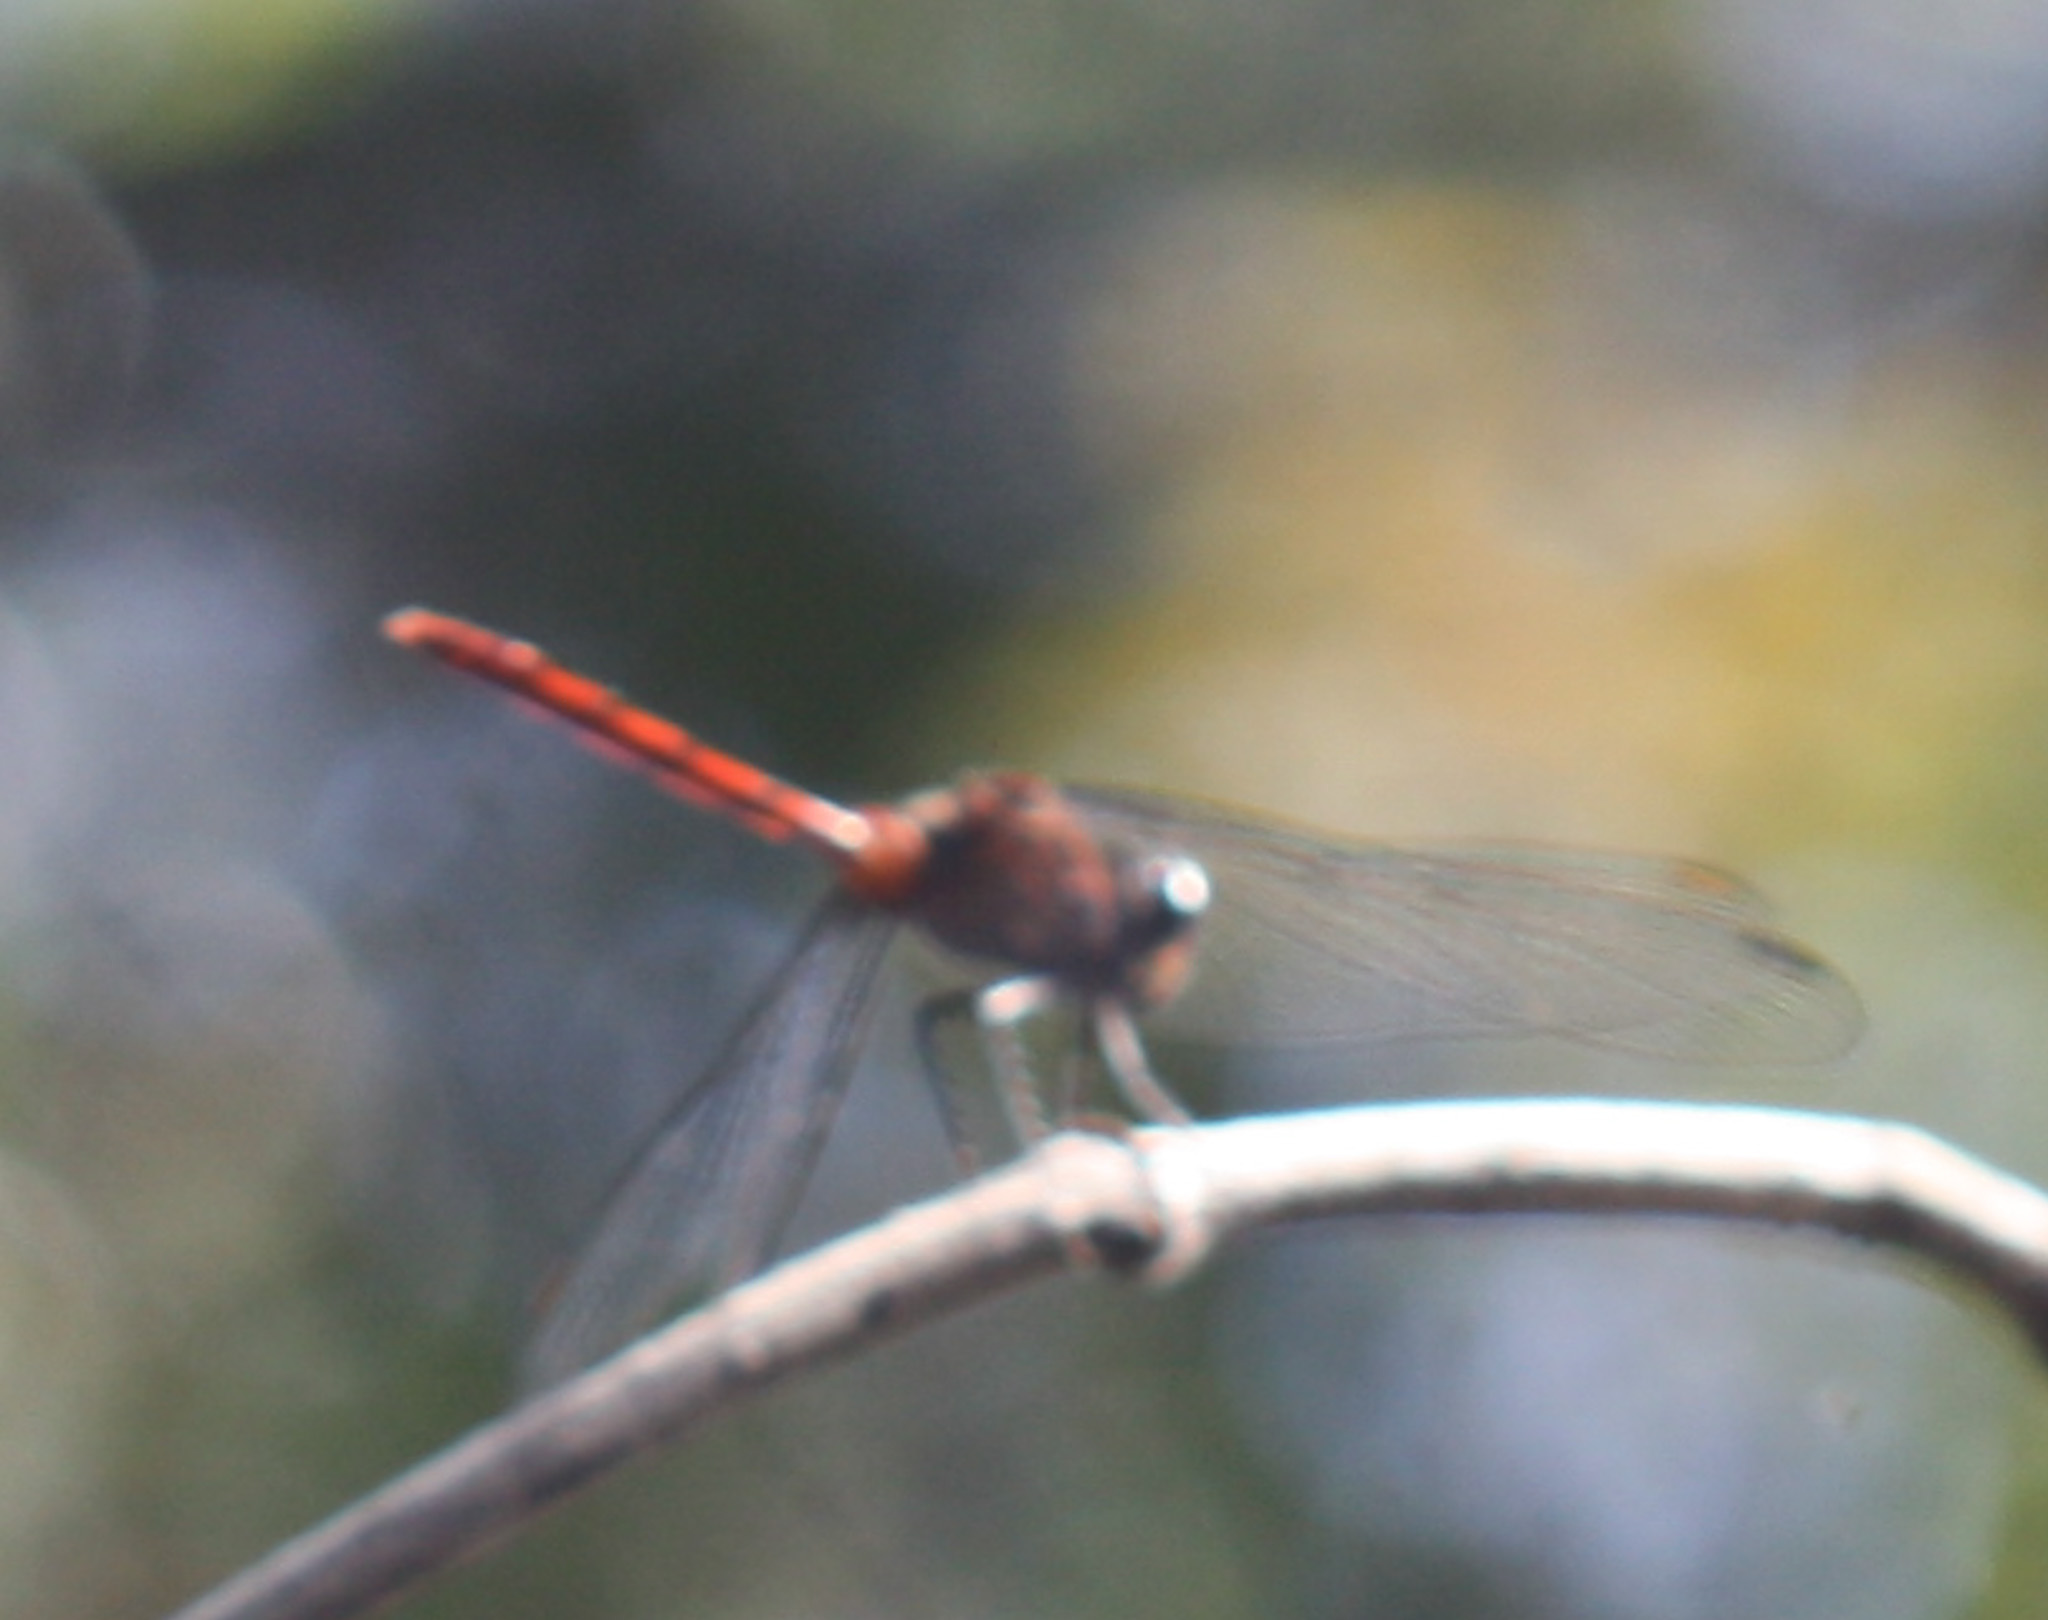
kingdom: Animalia
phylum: Arthropoda
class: Insecta
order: Odonata
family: Libellulidae
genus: Erythemis
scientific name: Erythemis haematogastra
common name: Red pondhawk
